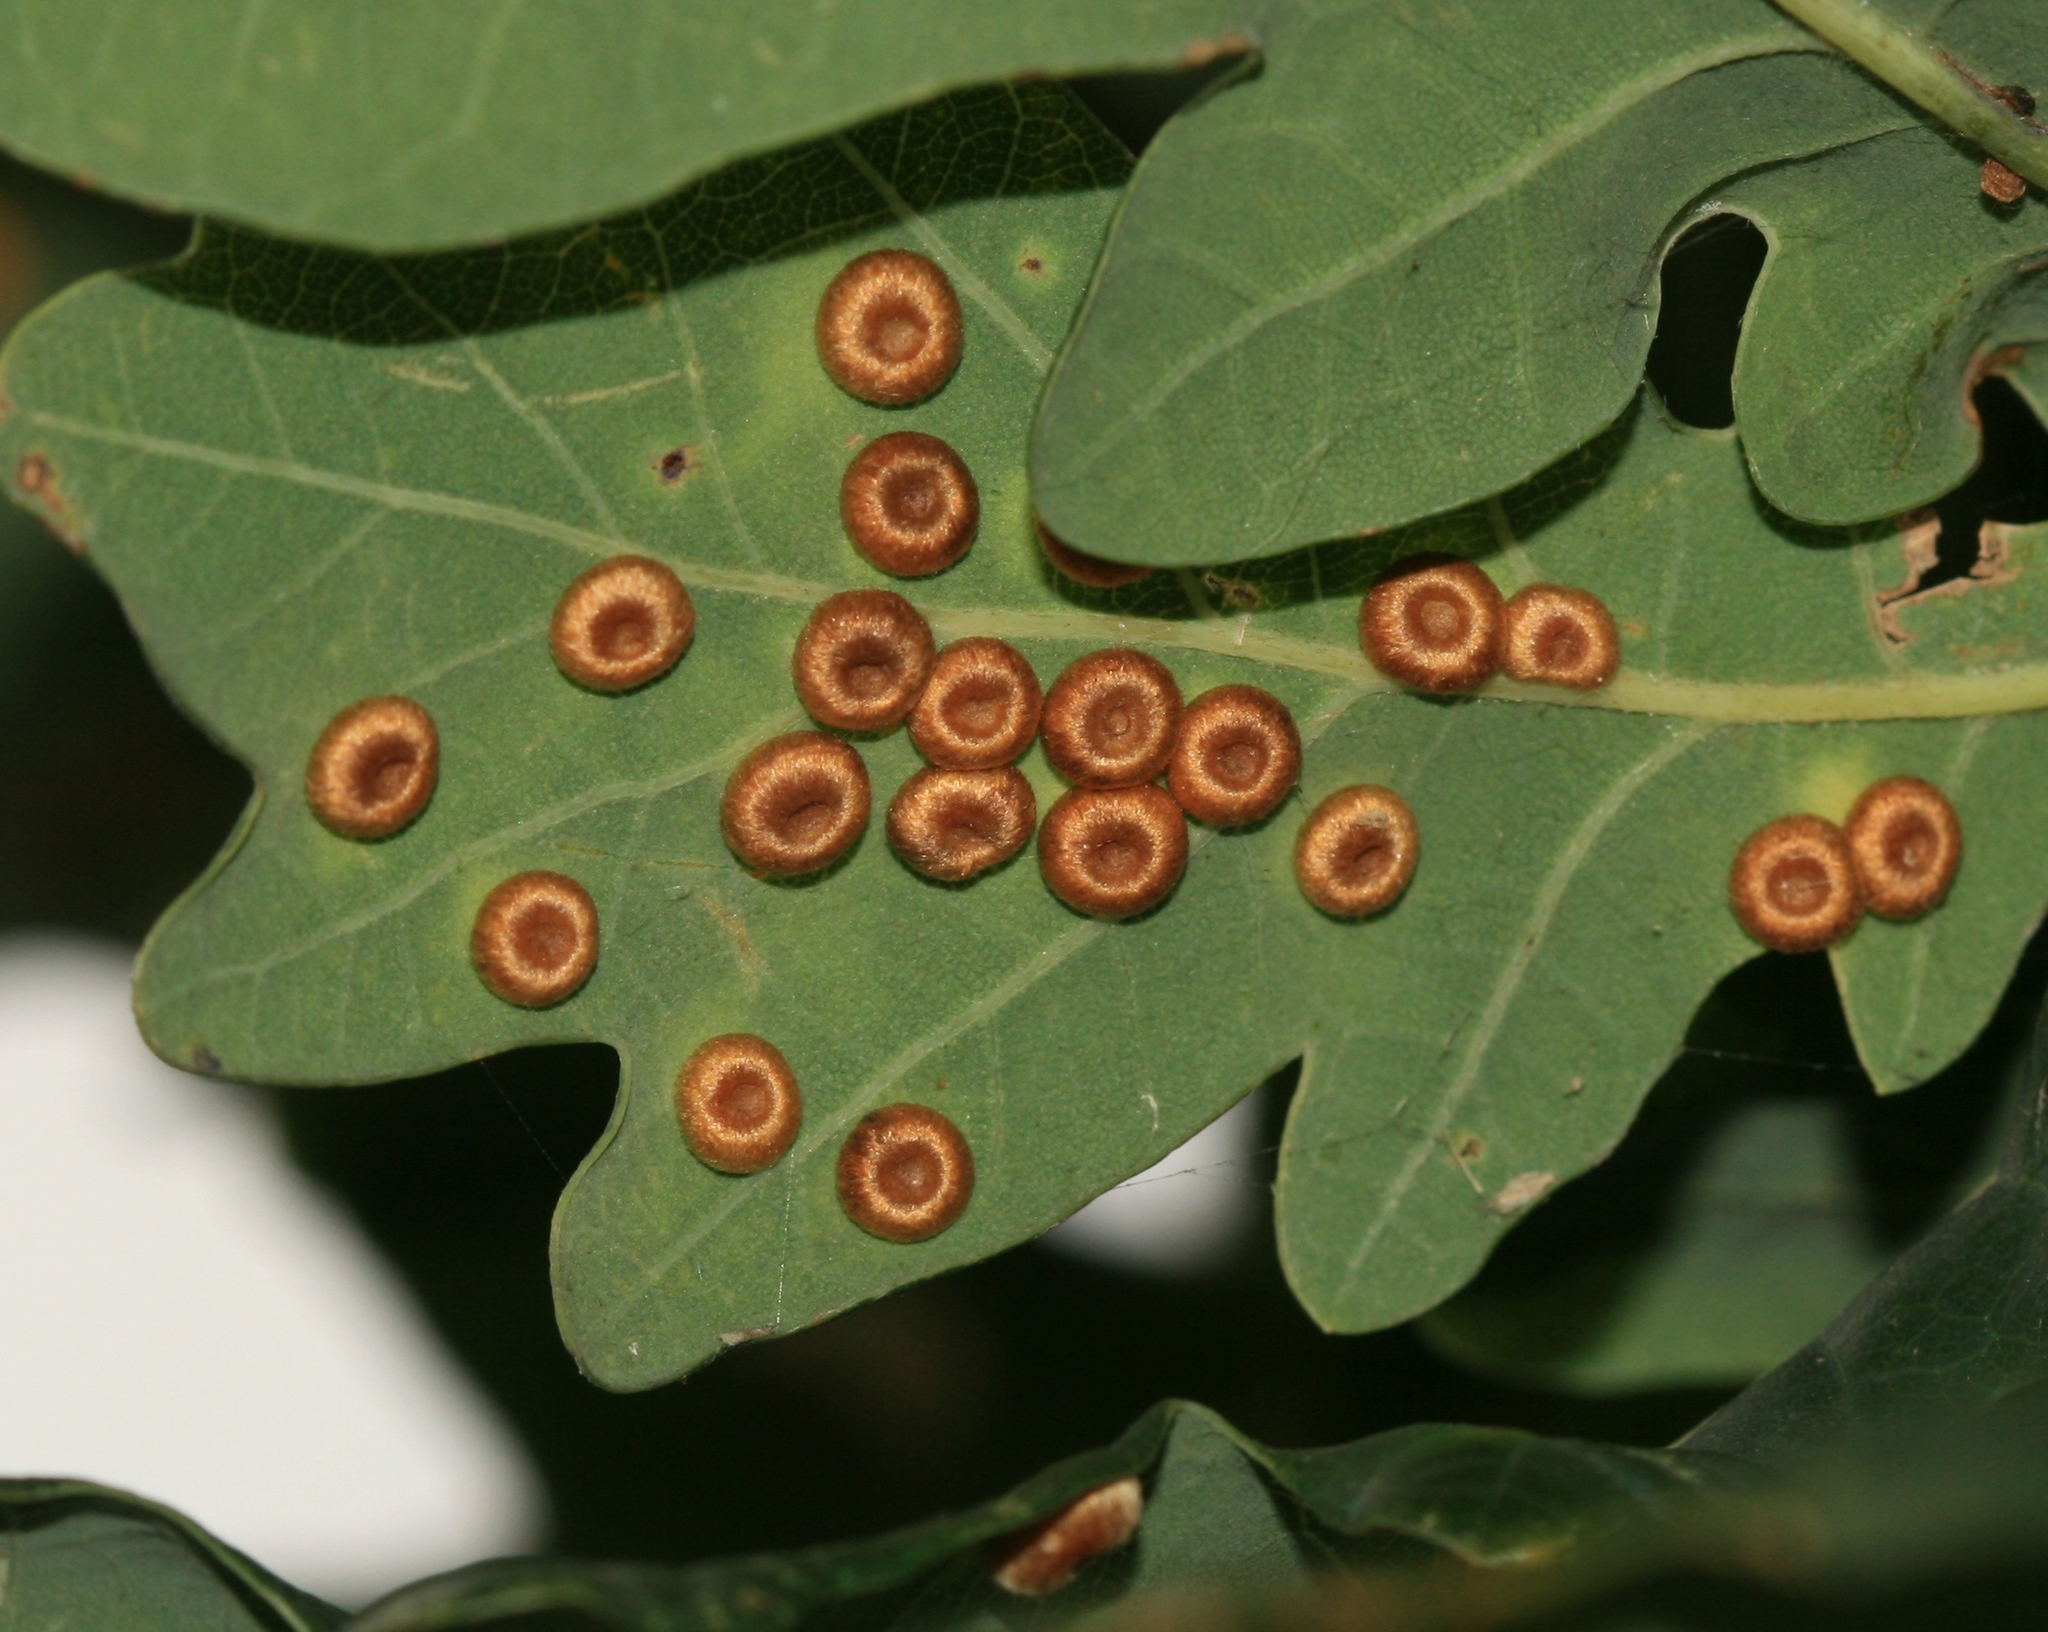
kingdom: Animalia
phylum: Arthropoda
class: Insecta
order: Hymenoptera
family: Cynipidae
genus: Neuroterus
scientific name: Neuroterus numismalis
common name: Silk-button spangle gall
